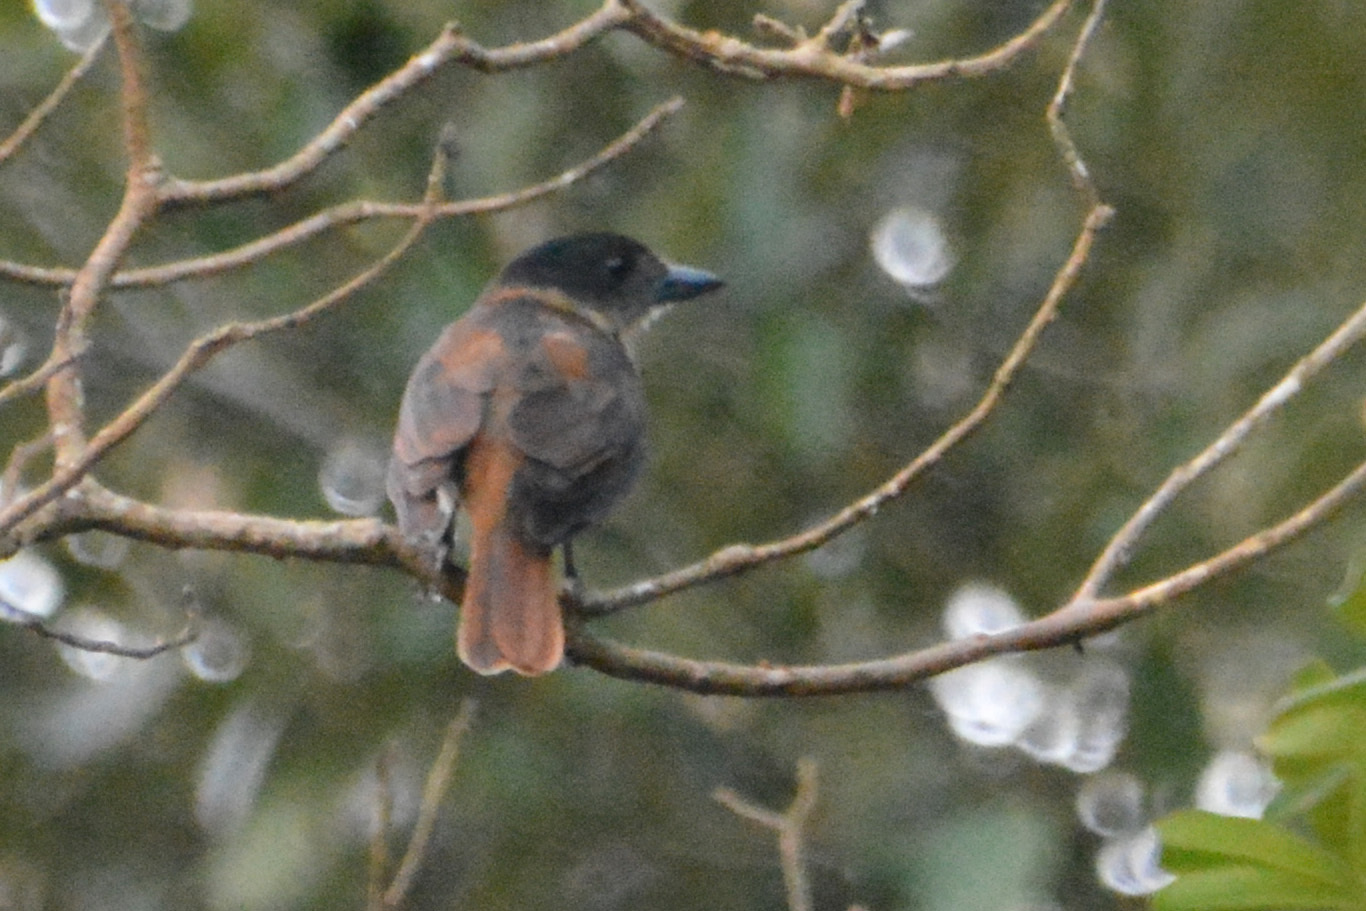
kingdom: Animalia
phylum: Chordata
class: Aves
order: Passeriformes
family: Cotingidae
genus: Pachyramphus
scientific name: Pachyramphus validus
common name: Crested becard
